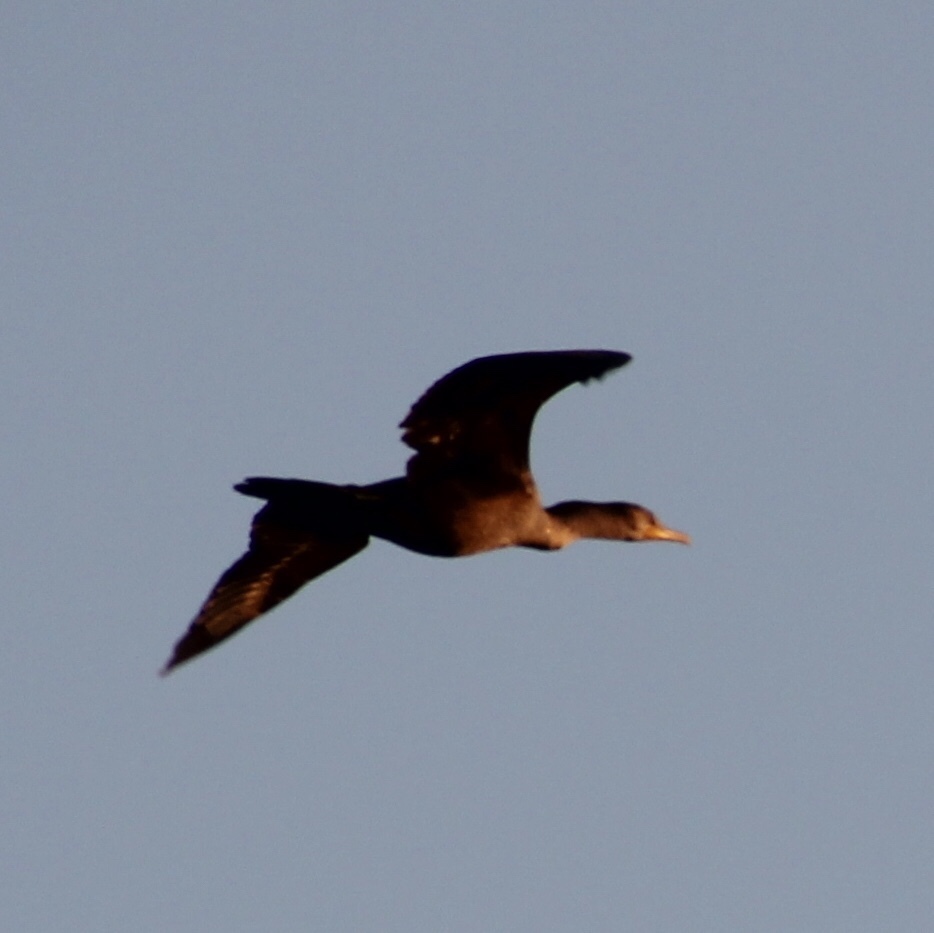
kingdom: Animalia
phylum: Chordata
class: Aves
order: Suliformes
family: Phalacrocoracidae
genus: Phalacrocorax
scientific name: Phalacrocorax auritus
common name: Double-crested cormorant
